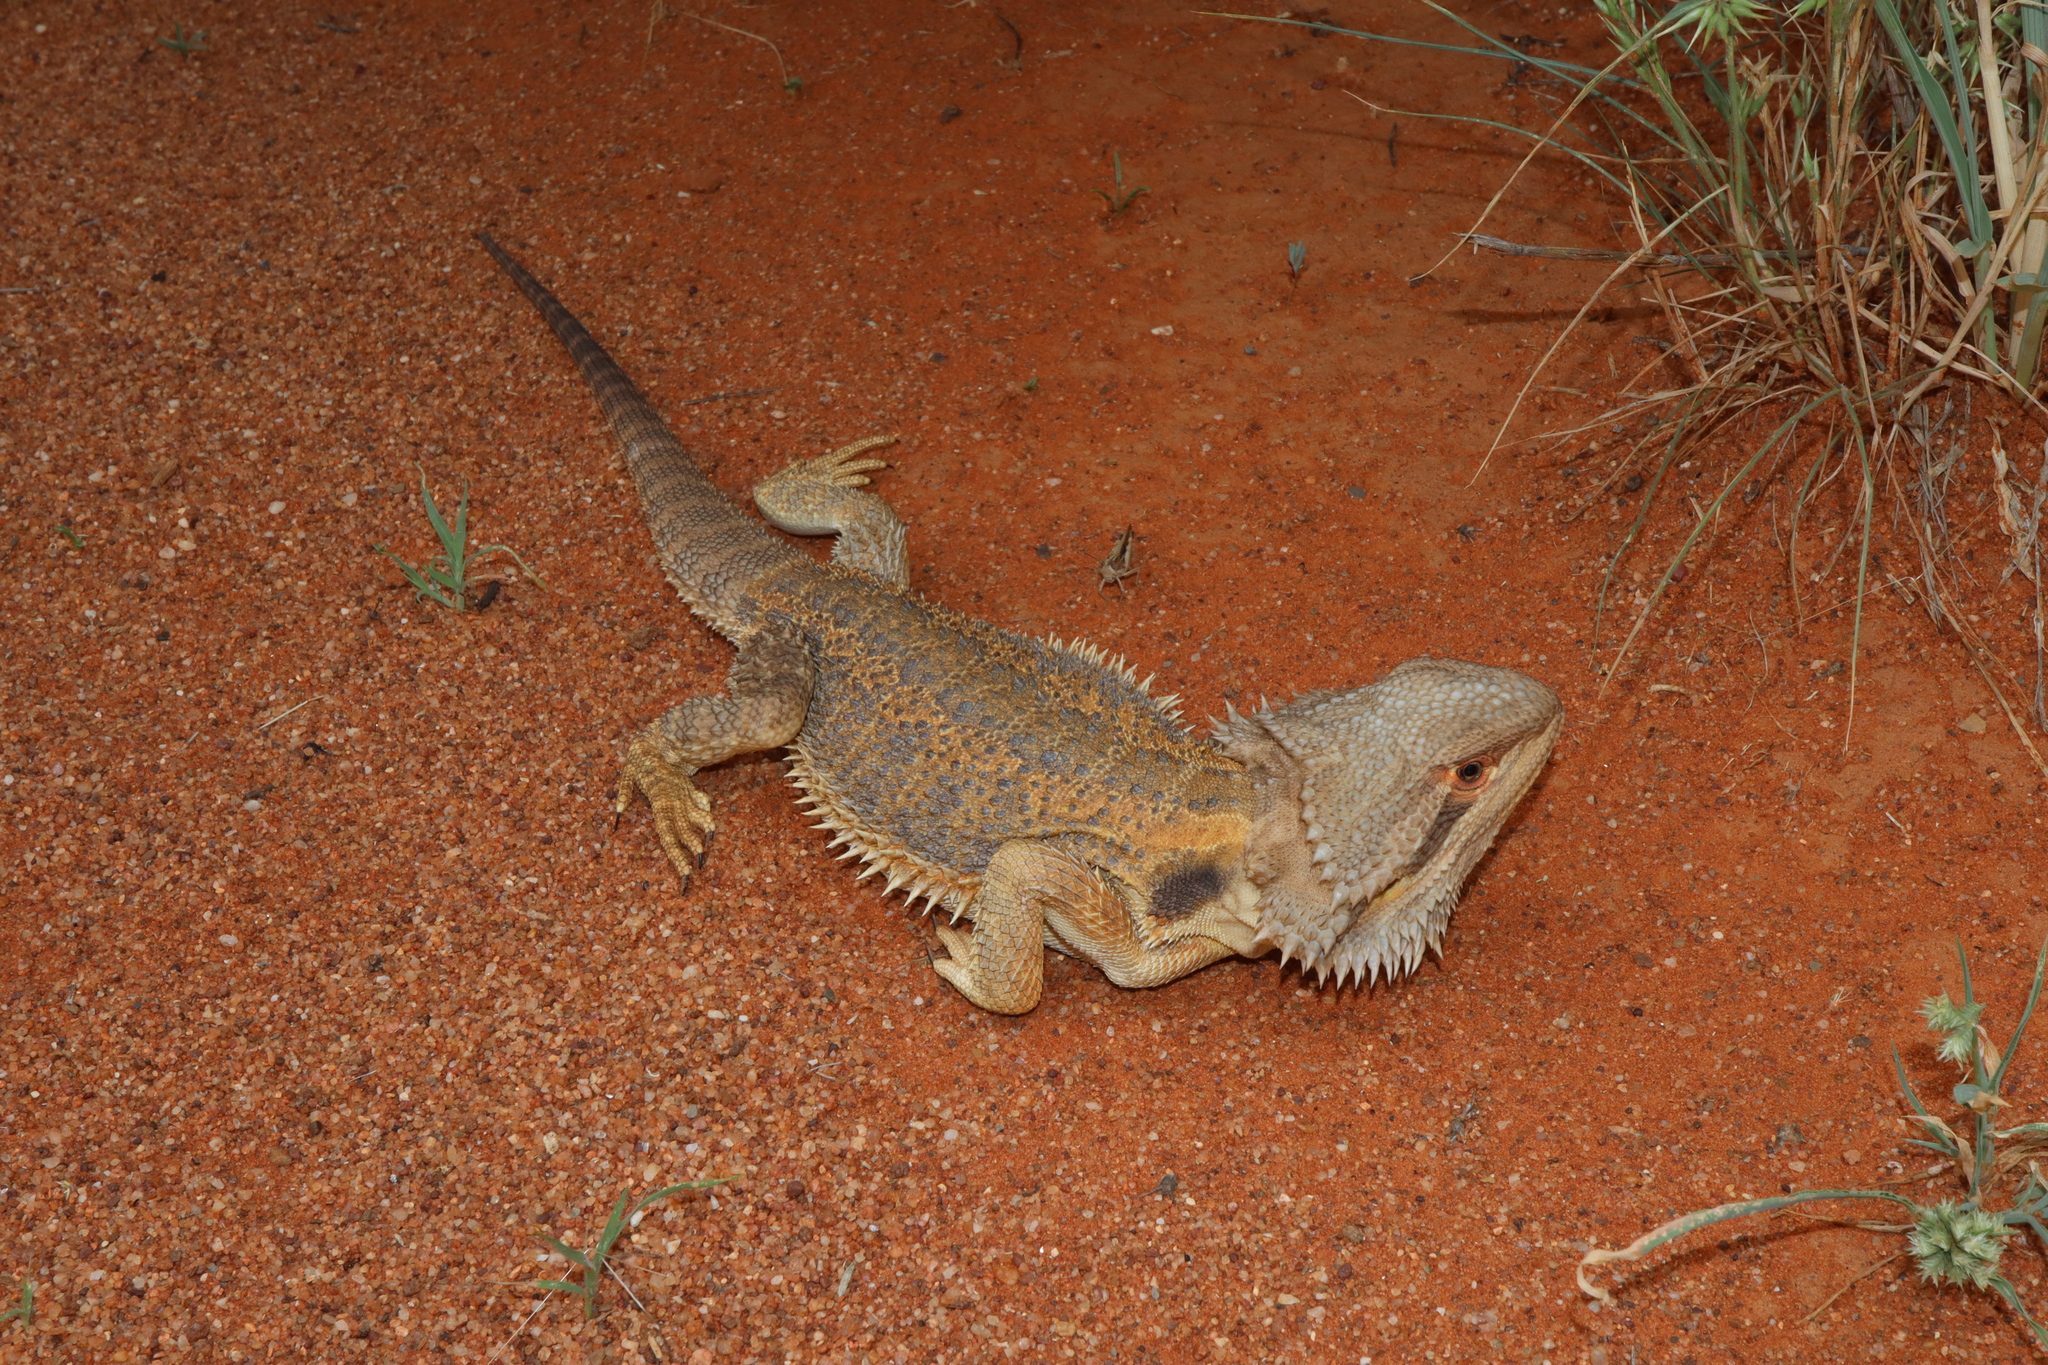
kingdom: Animalia
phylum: Chordata
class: Squamata
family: Agamidae
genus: Pogona
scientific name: Pogona vitticeps
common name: Central bearded dragon
